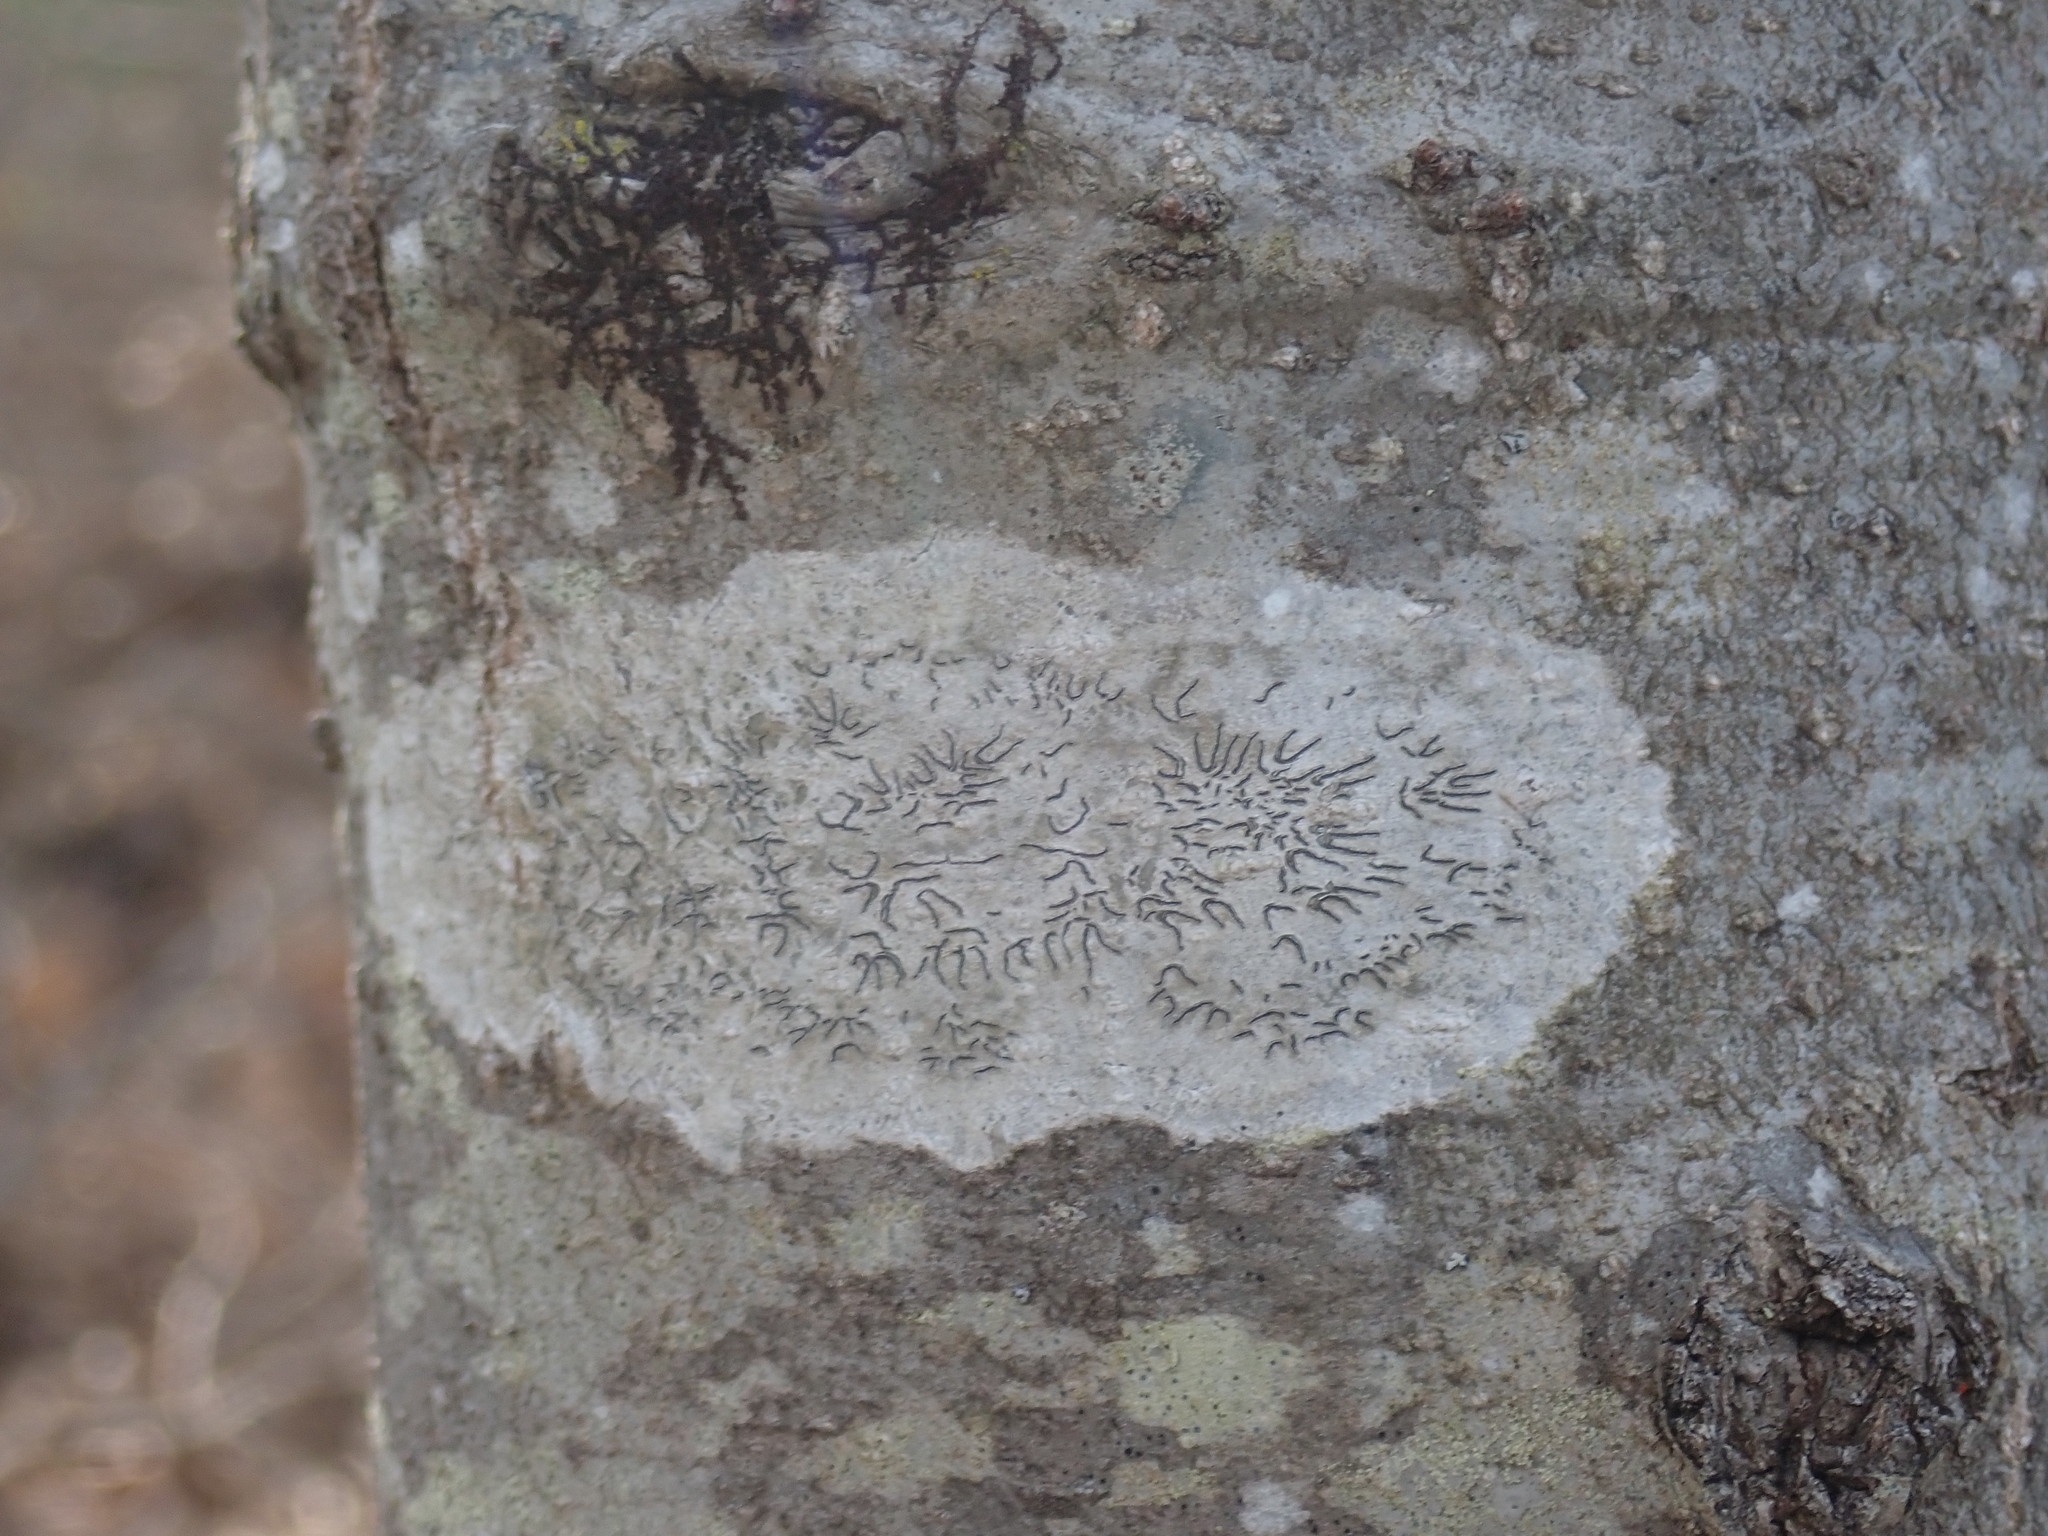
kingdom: Fungi
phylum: Ascomycota
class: Lecanoromycetes
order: Ostropales
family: Graphidaceae
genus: Graphis
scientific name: Graphis scripta
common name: Script lichen
